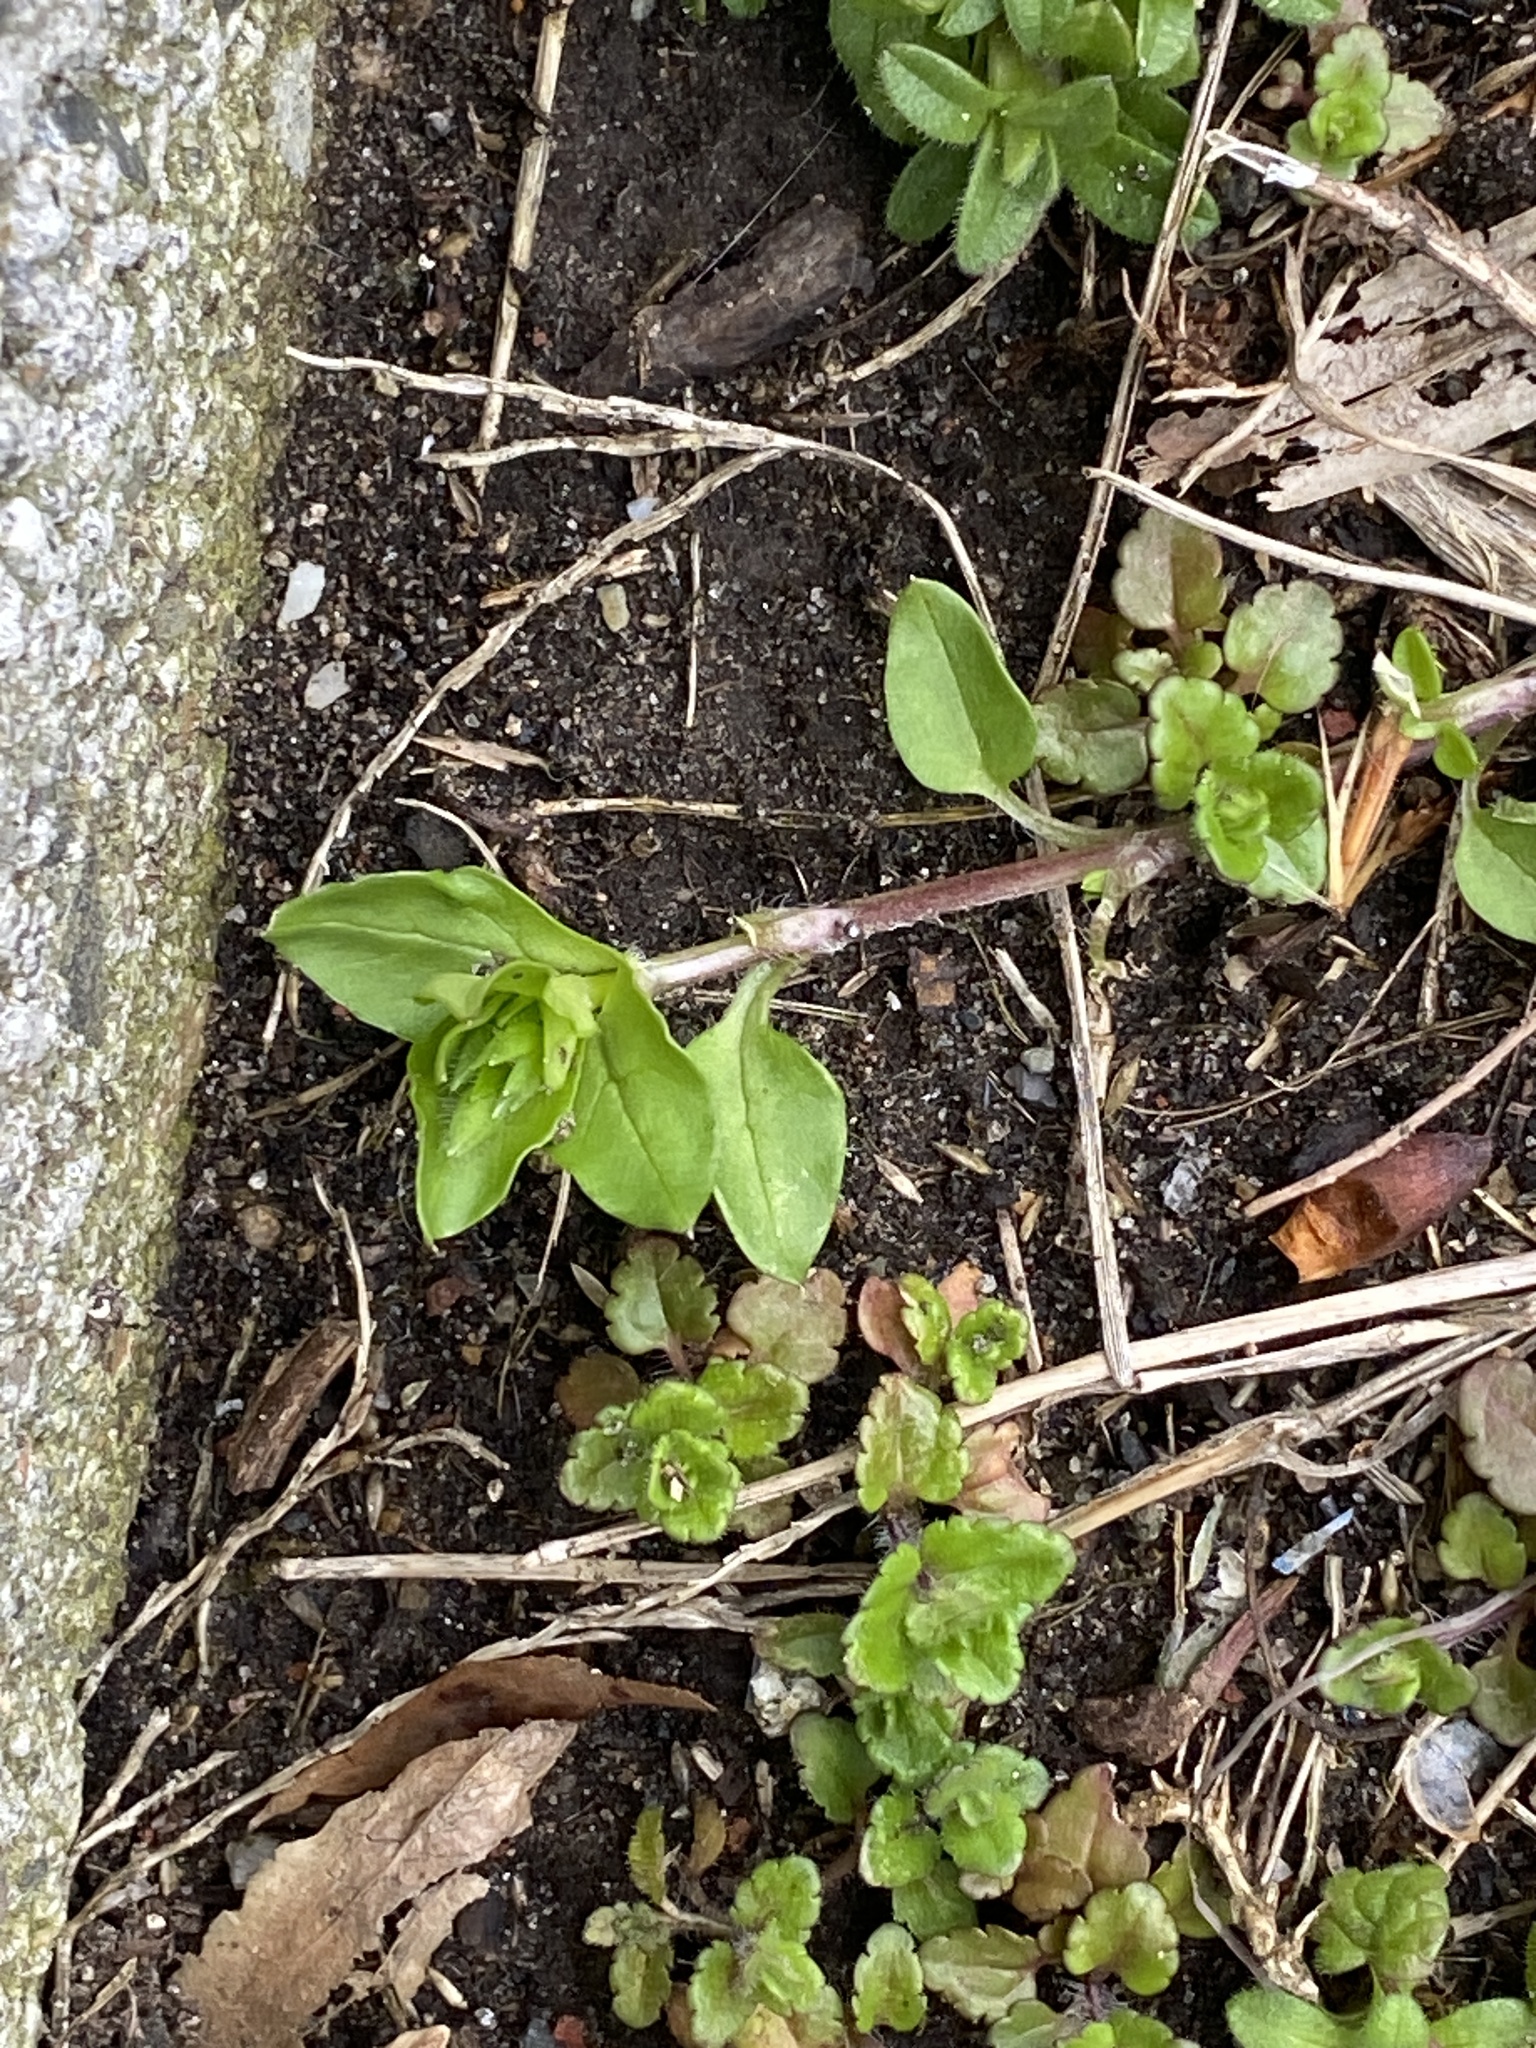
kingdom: Plantae
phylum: Tracheophyta
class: Magnoliopsida
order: Caryophyllales
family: Caryophyllaceae
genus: Stellaria
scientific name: Stellaria media
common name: Common chickweed
